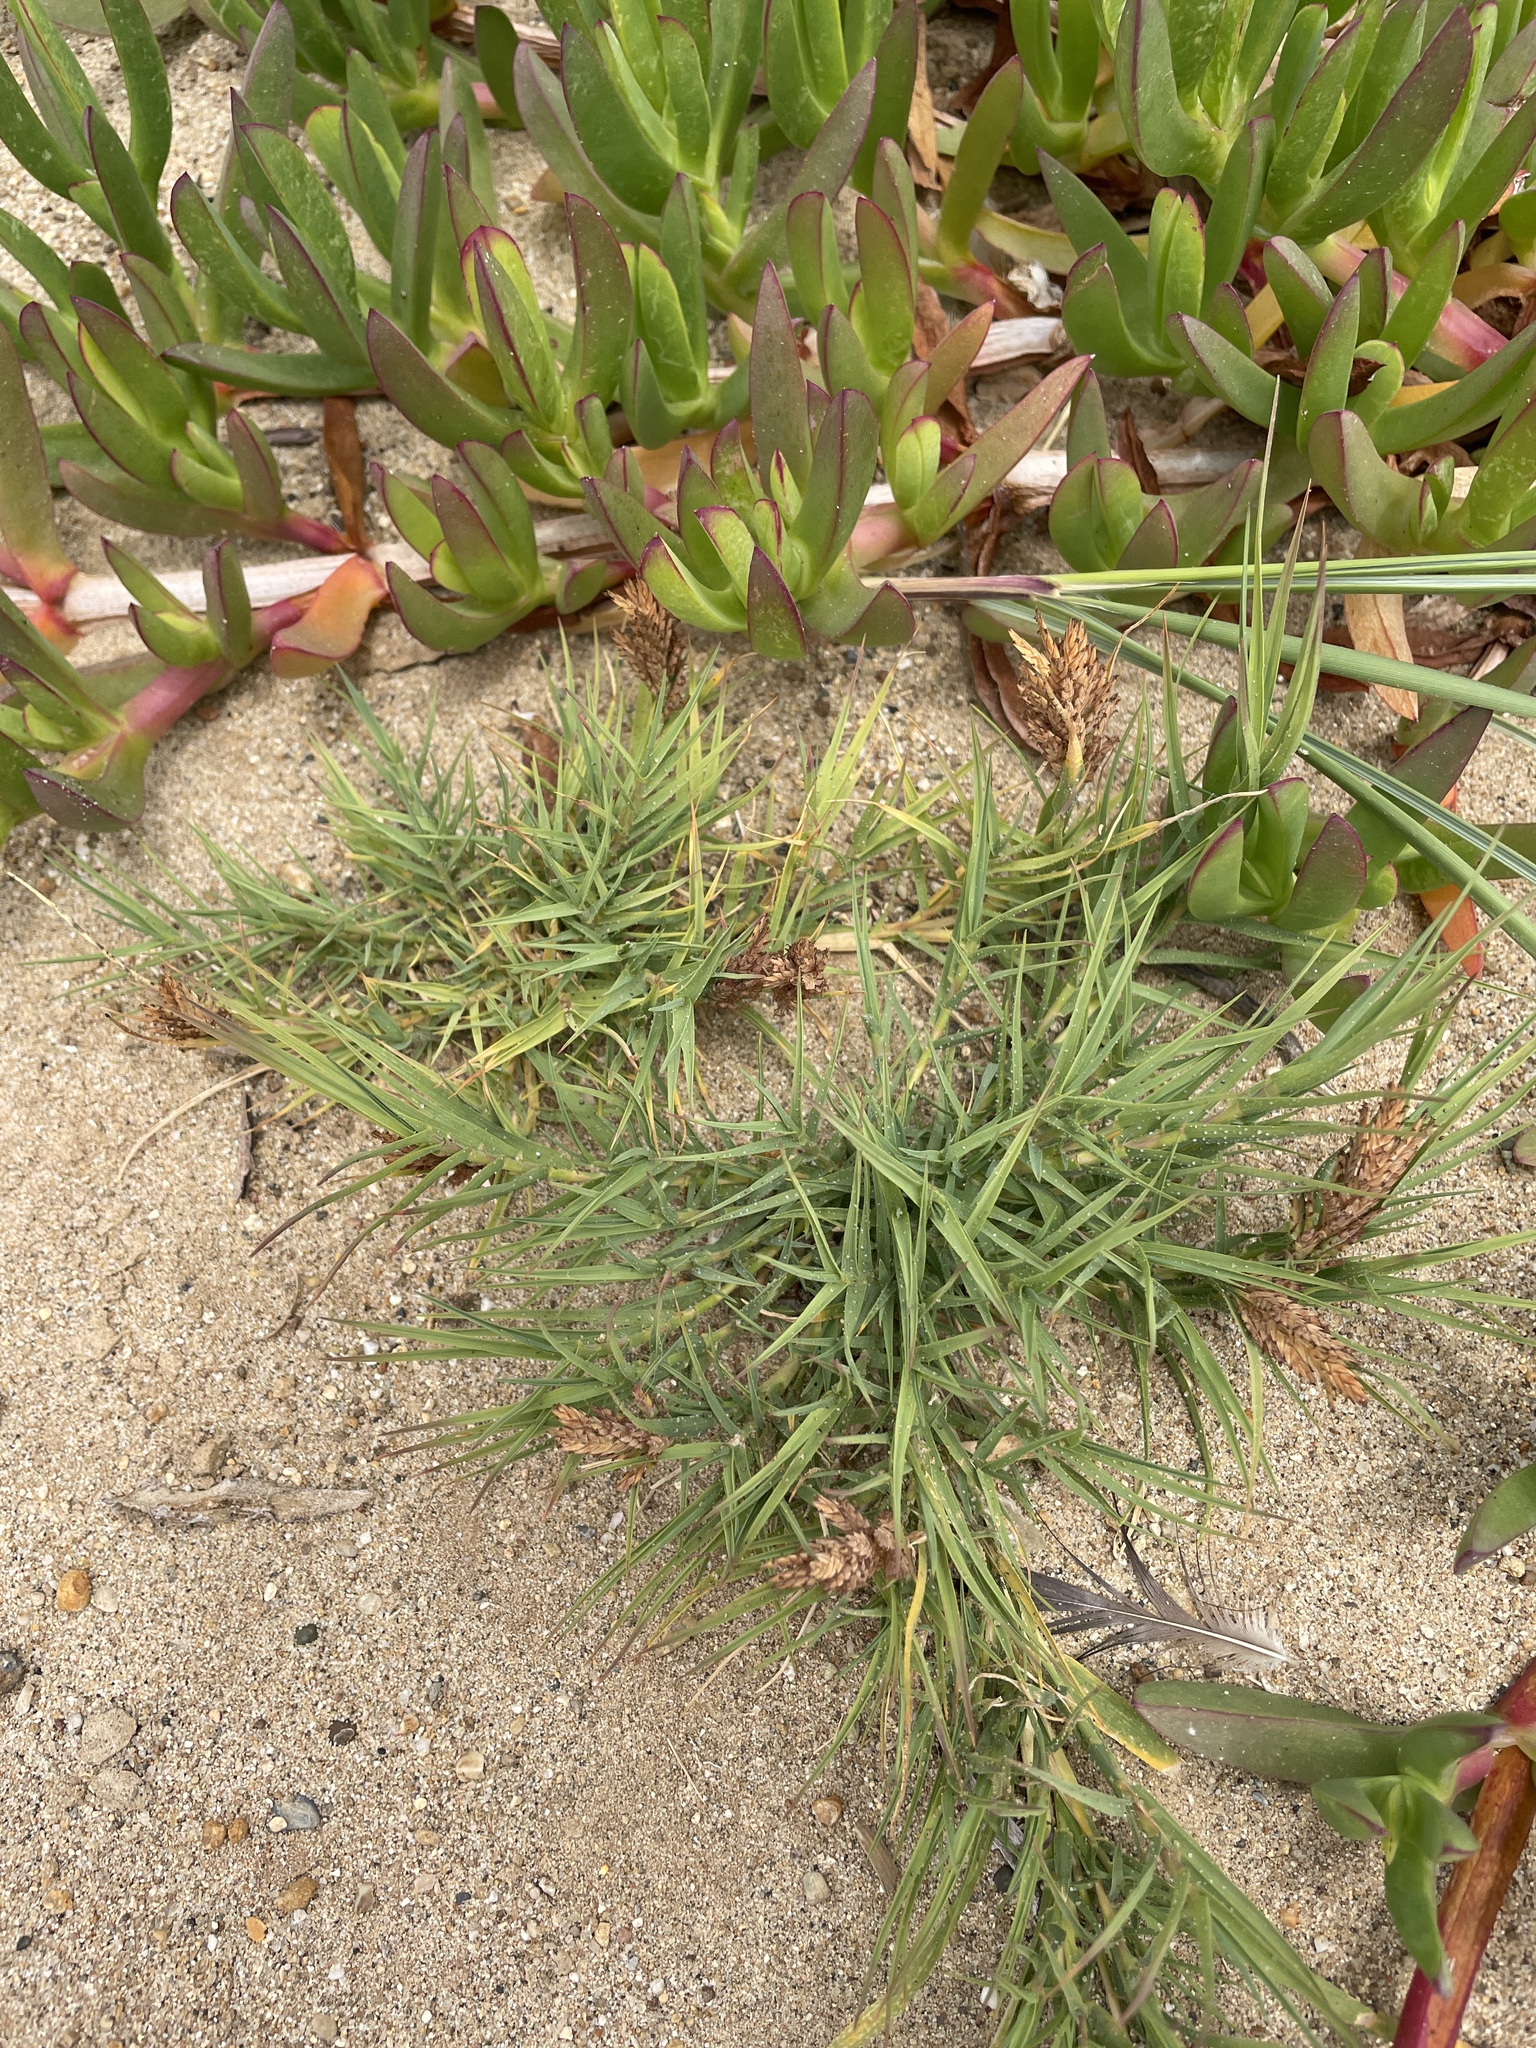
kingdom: Plantae
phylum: Tracheophyta
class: Liliopsida
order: Poales
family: Poaceae
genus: Distichlis
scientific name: Distichlis spicata
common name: Saltgrass
